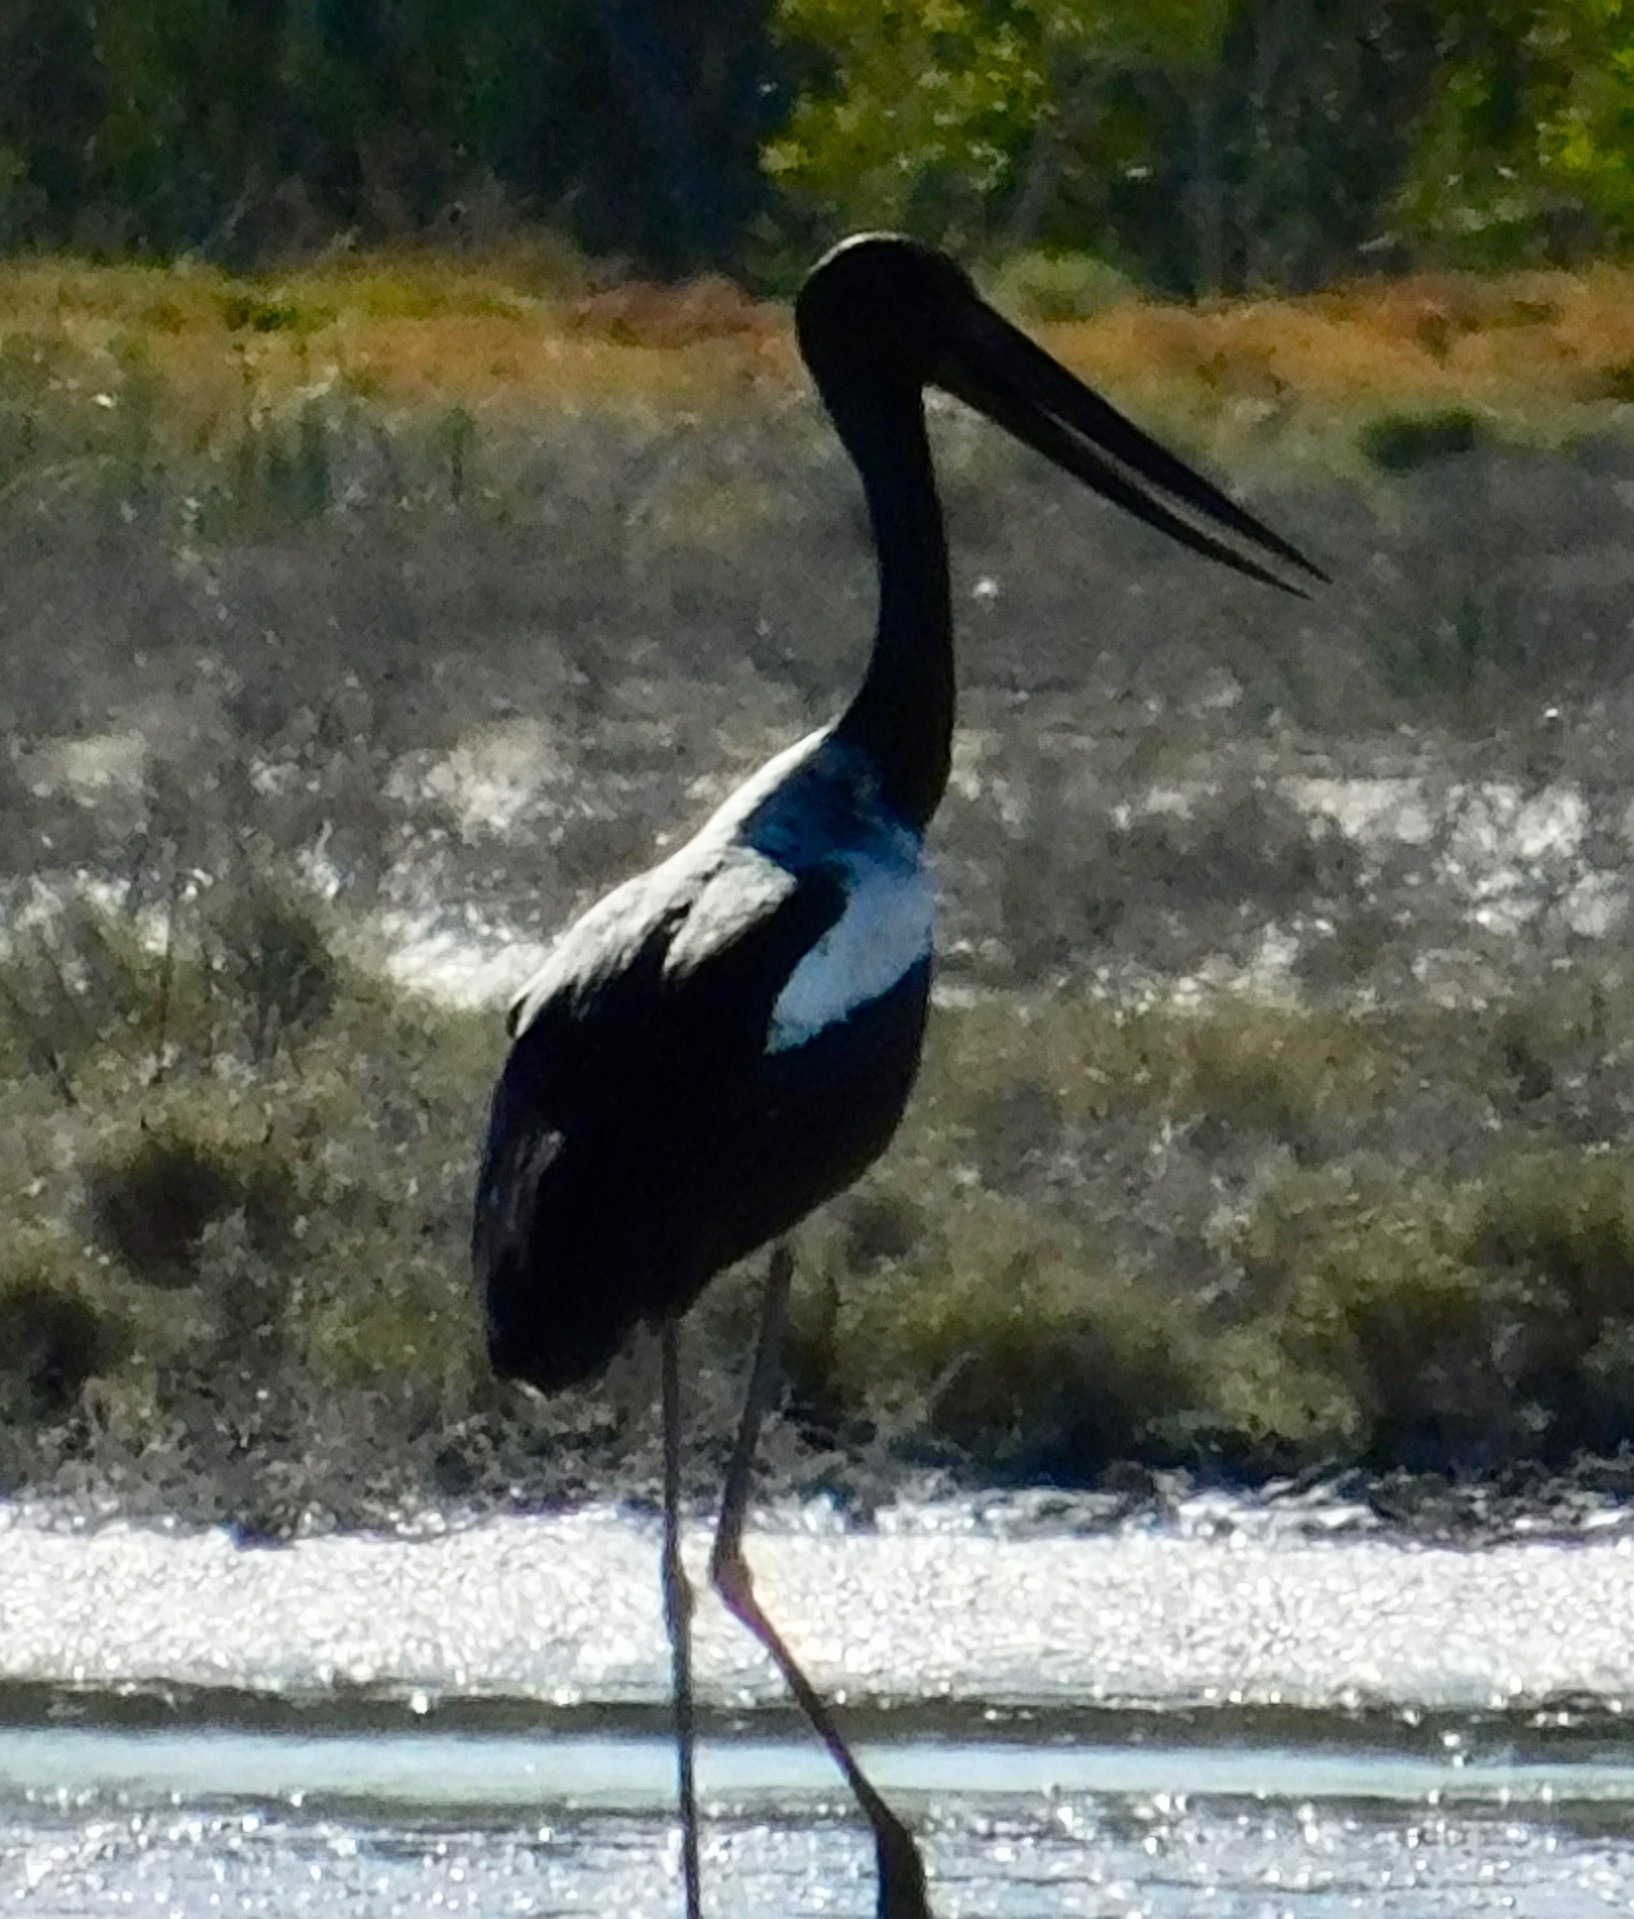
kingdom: Animalia
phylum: Chordata
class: Aves
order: Ciconiiformes
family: Ciconiidae
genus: Ephippiorhynchus
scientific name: Ephippiorhynchus asiaticus
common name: Black-necked stork
